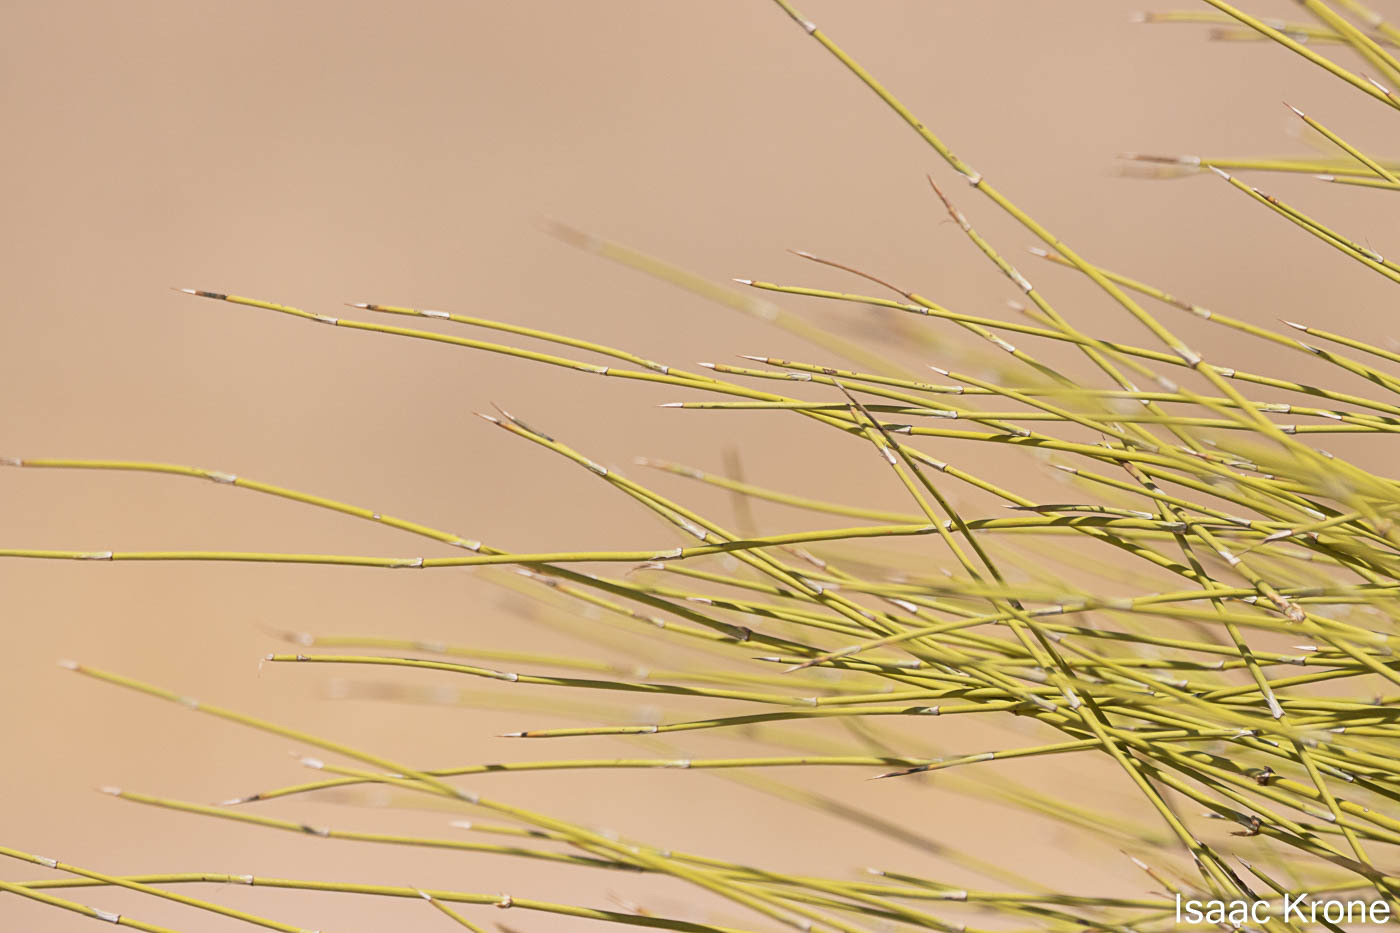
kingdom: Plantae
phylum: Tracheophyta
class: Gnetopsida
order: Ephedrales
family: Ephedraceae
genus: Ephedra
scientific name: Ephedra trifurca
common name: Mexican-tea
